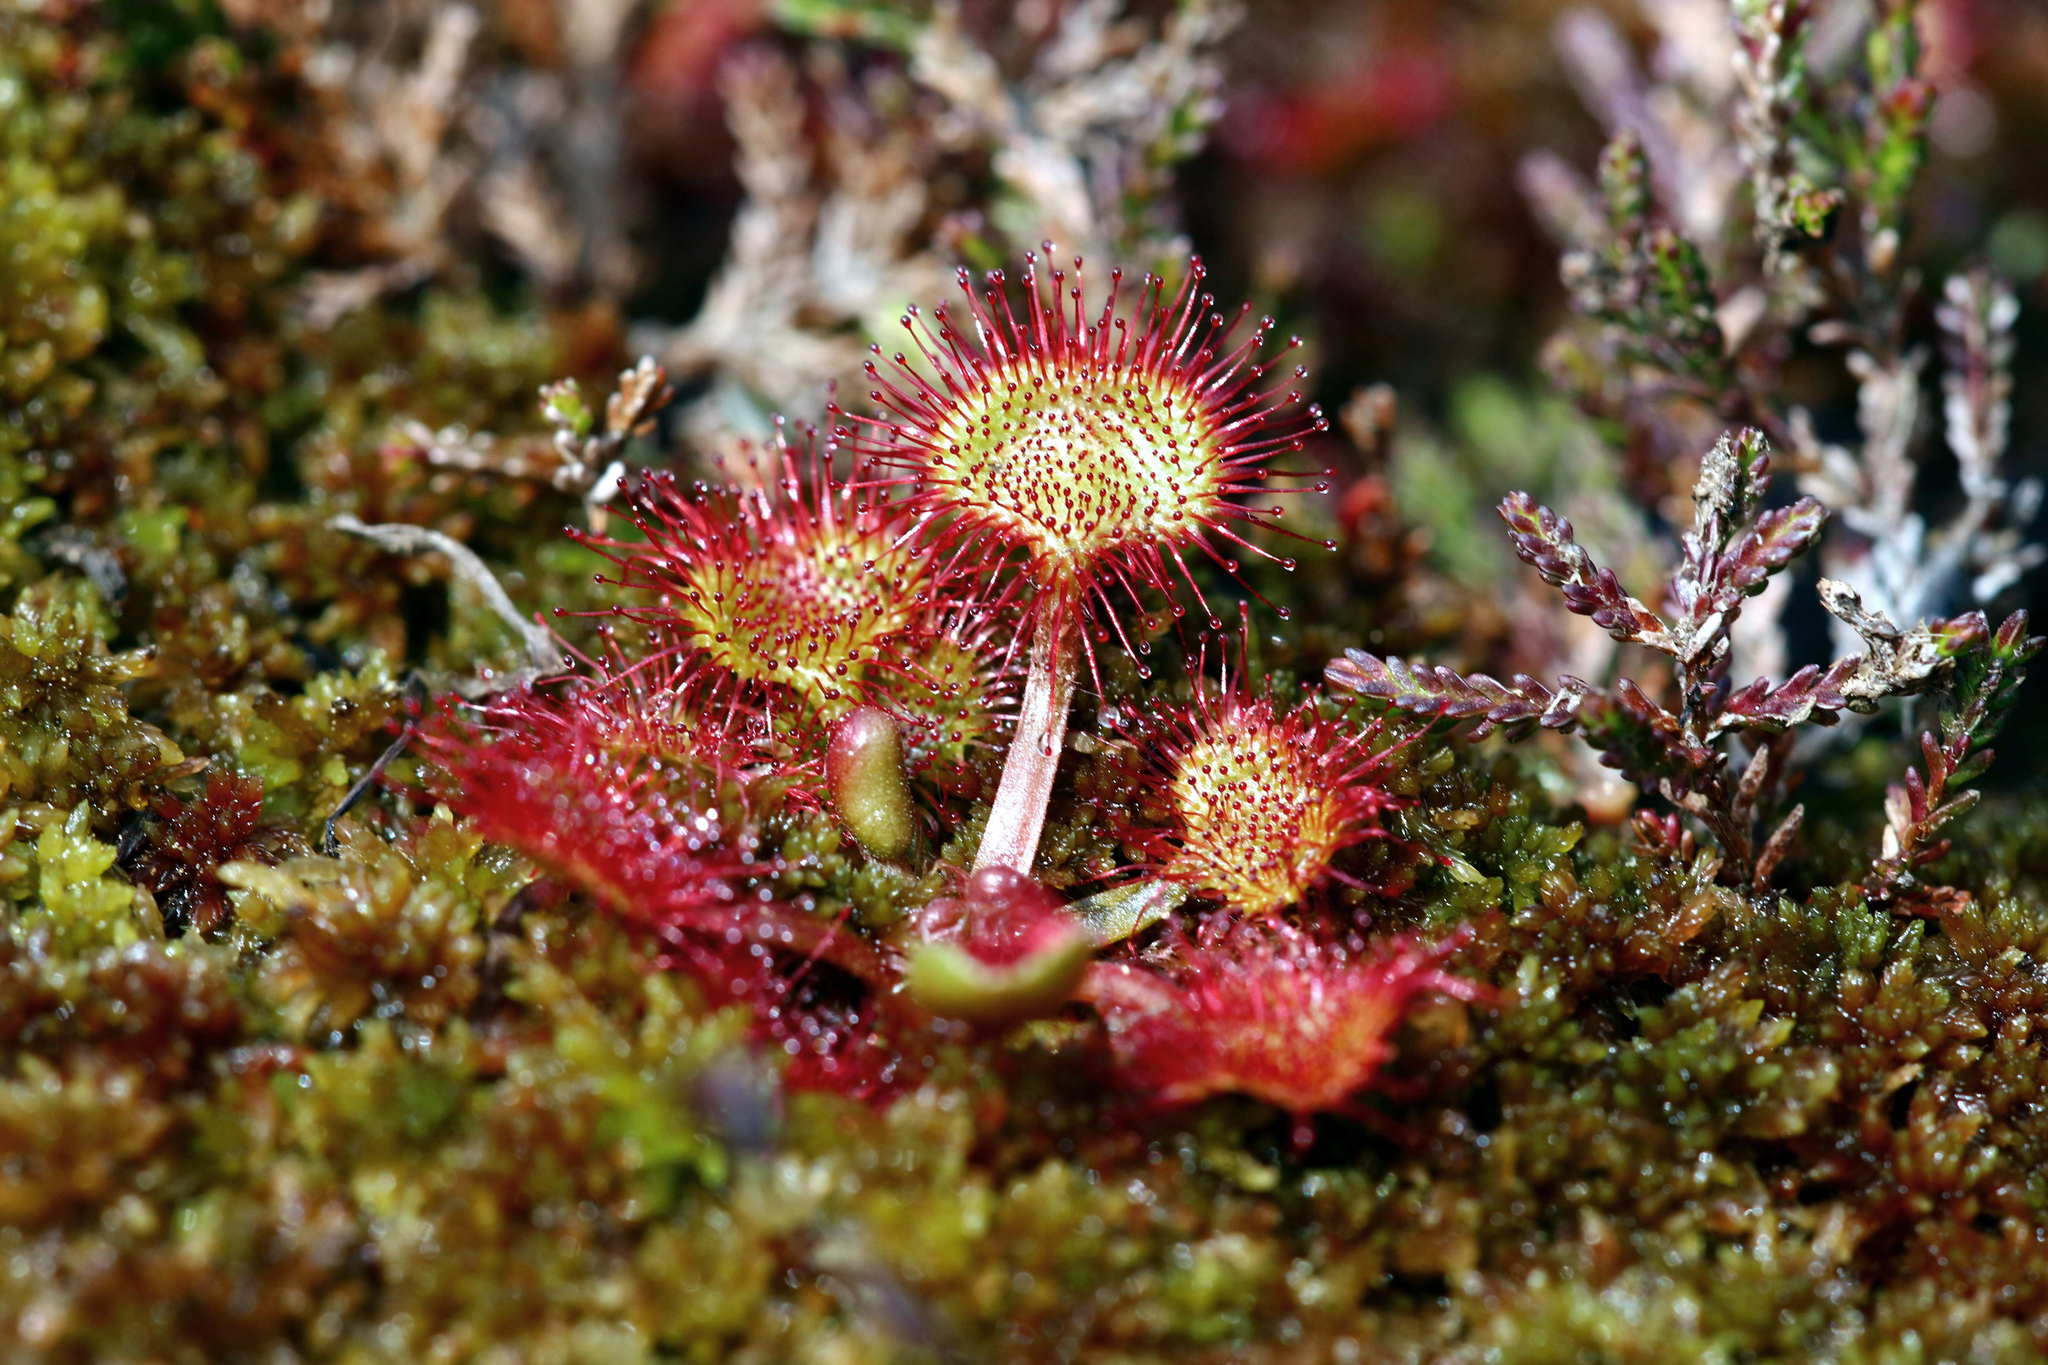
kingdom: Plantae
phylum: Tracheophyta
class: Magnoliopsida
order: Caryophyllales
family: Droseraceae
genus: Drosera
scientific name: Drosera rotundifolia
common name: Round-leaved sundew
